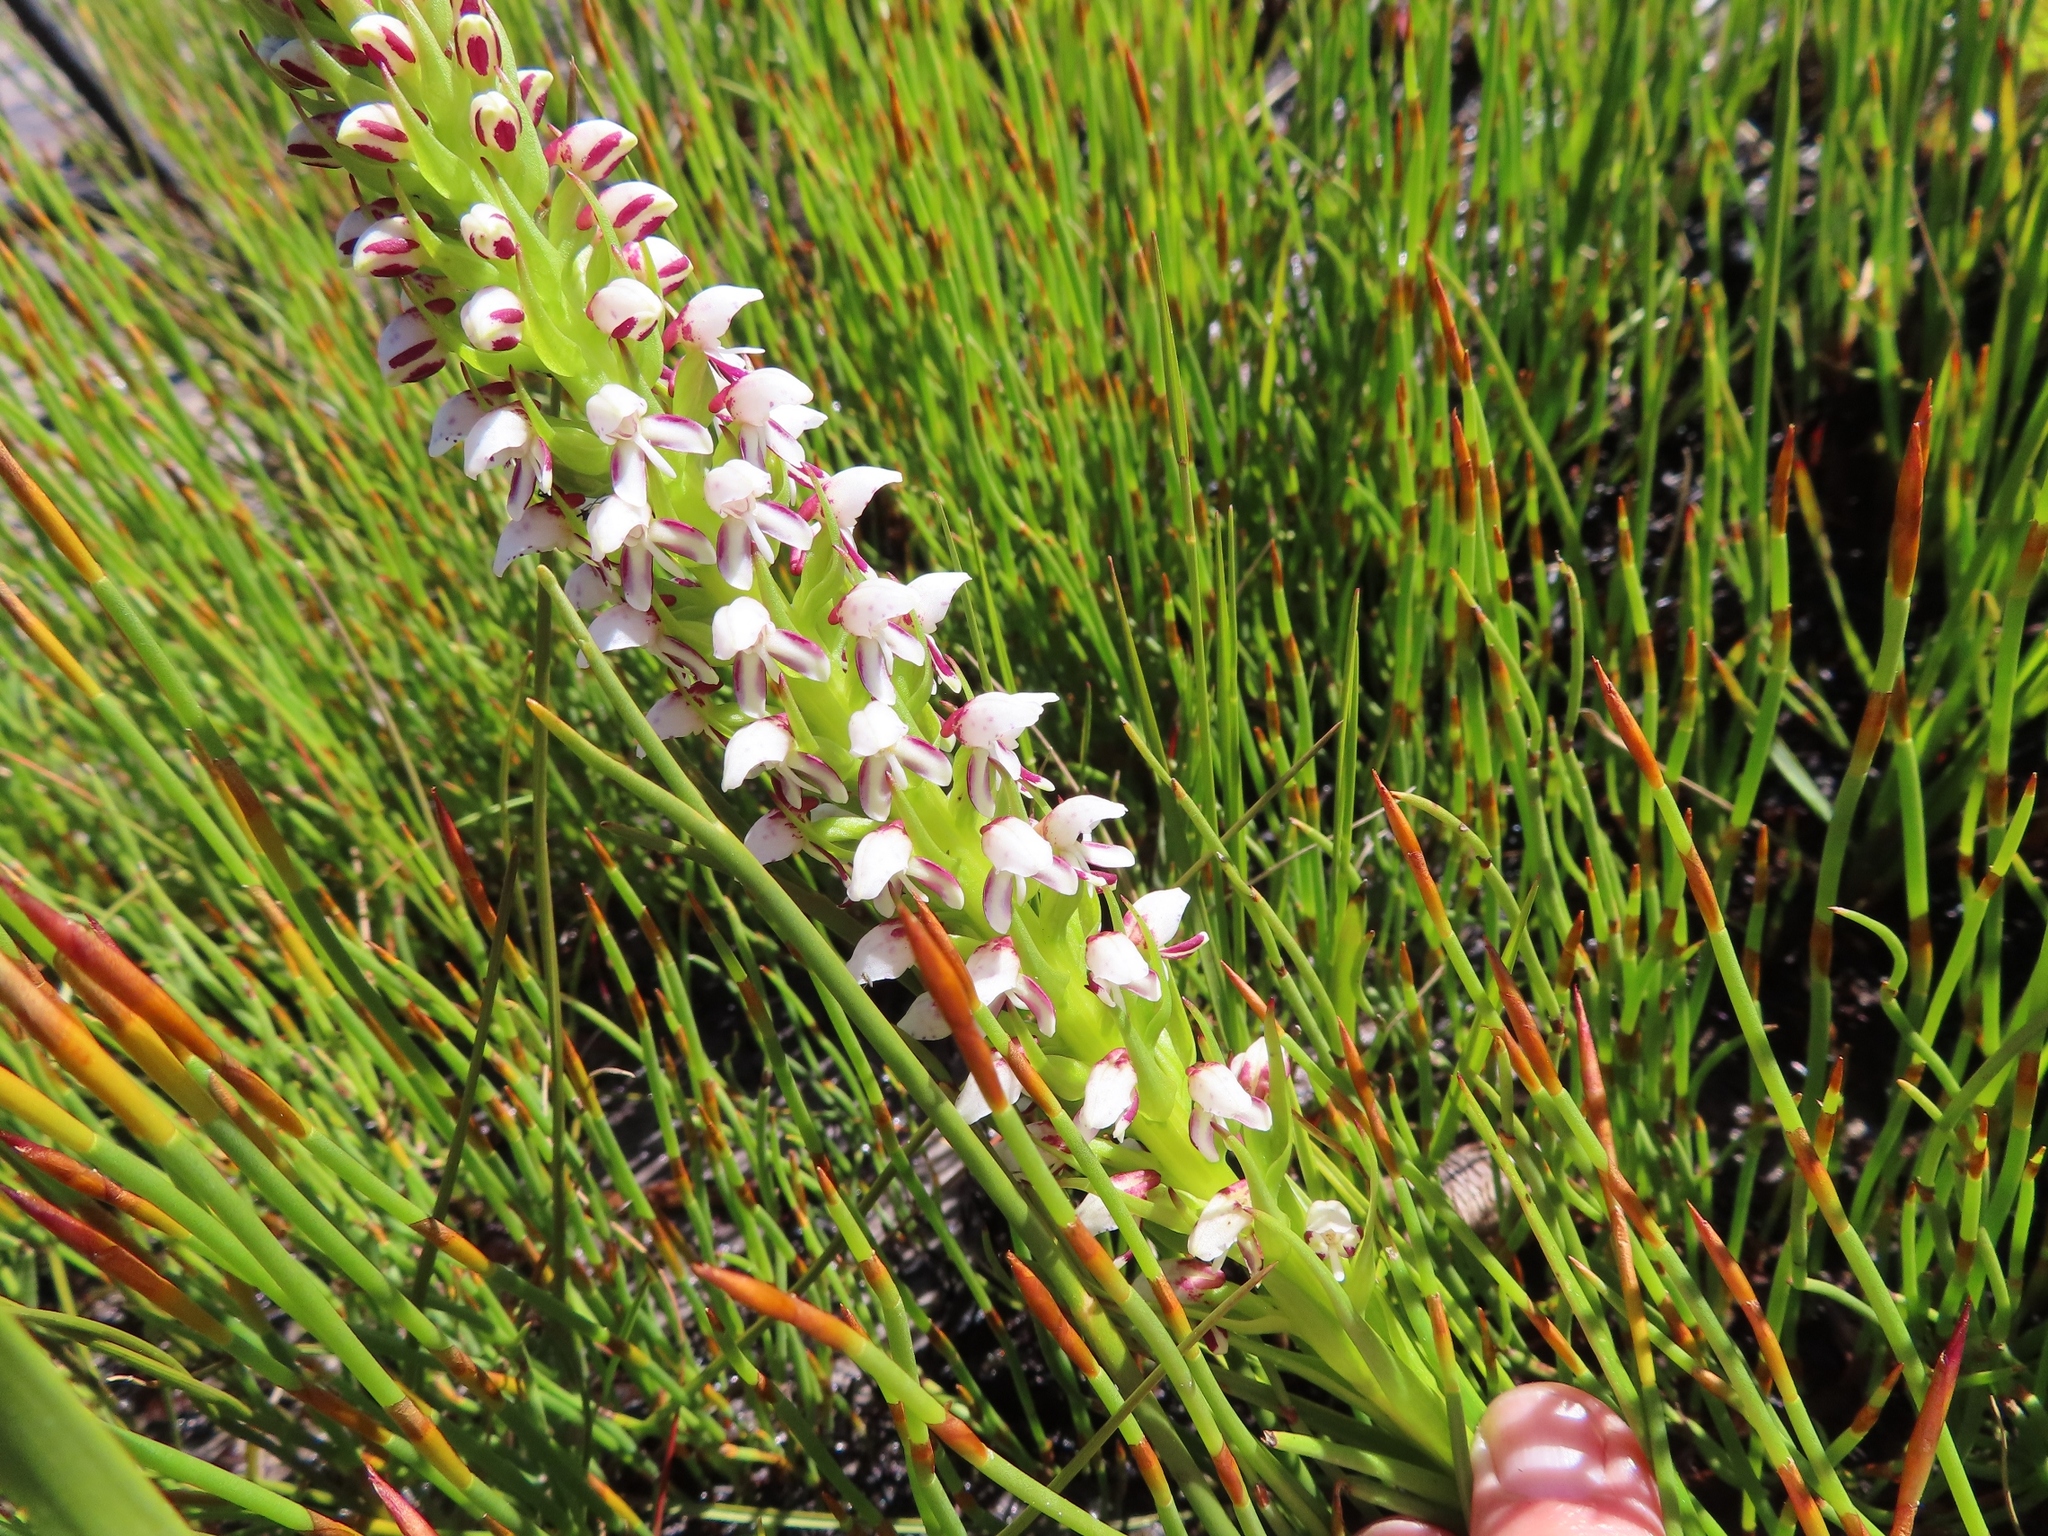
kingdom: Plantae
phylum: Tracheophyta
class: Liliopsida
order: Asparagales
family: Orchidaceae
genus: Disa
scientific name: Disa obtusa
